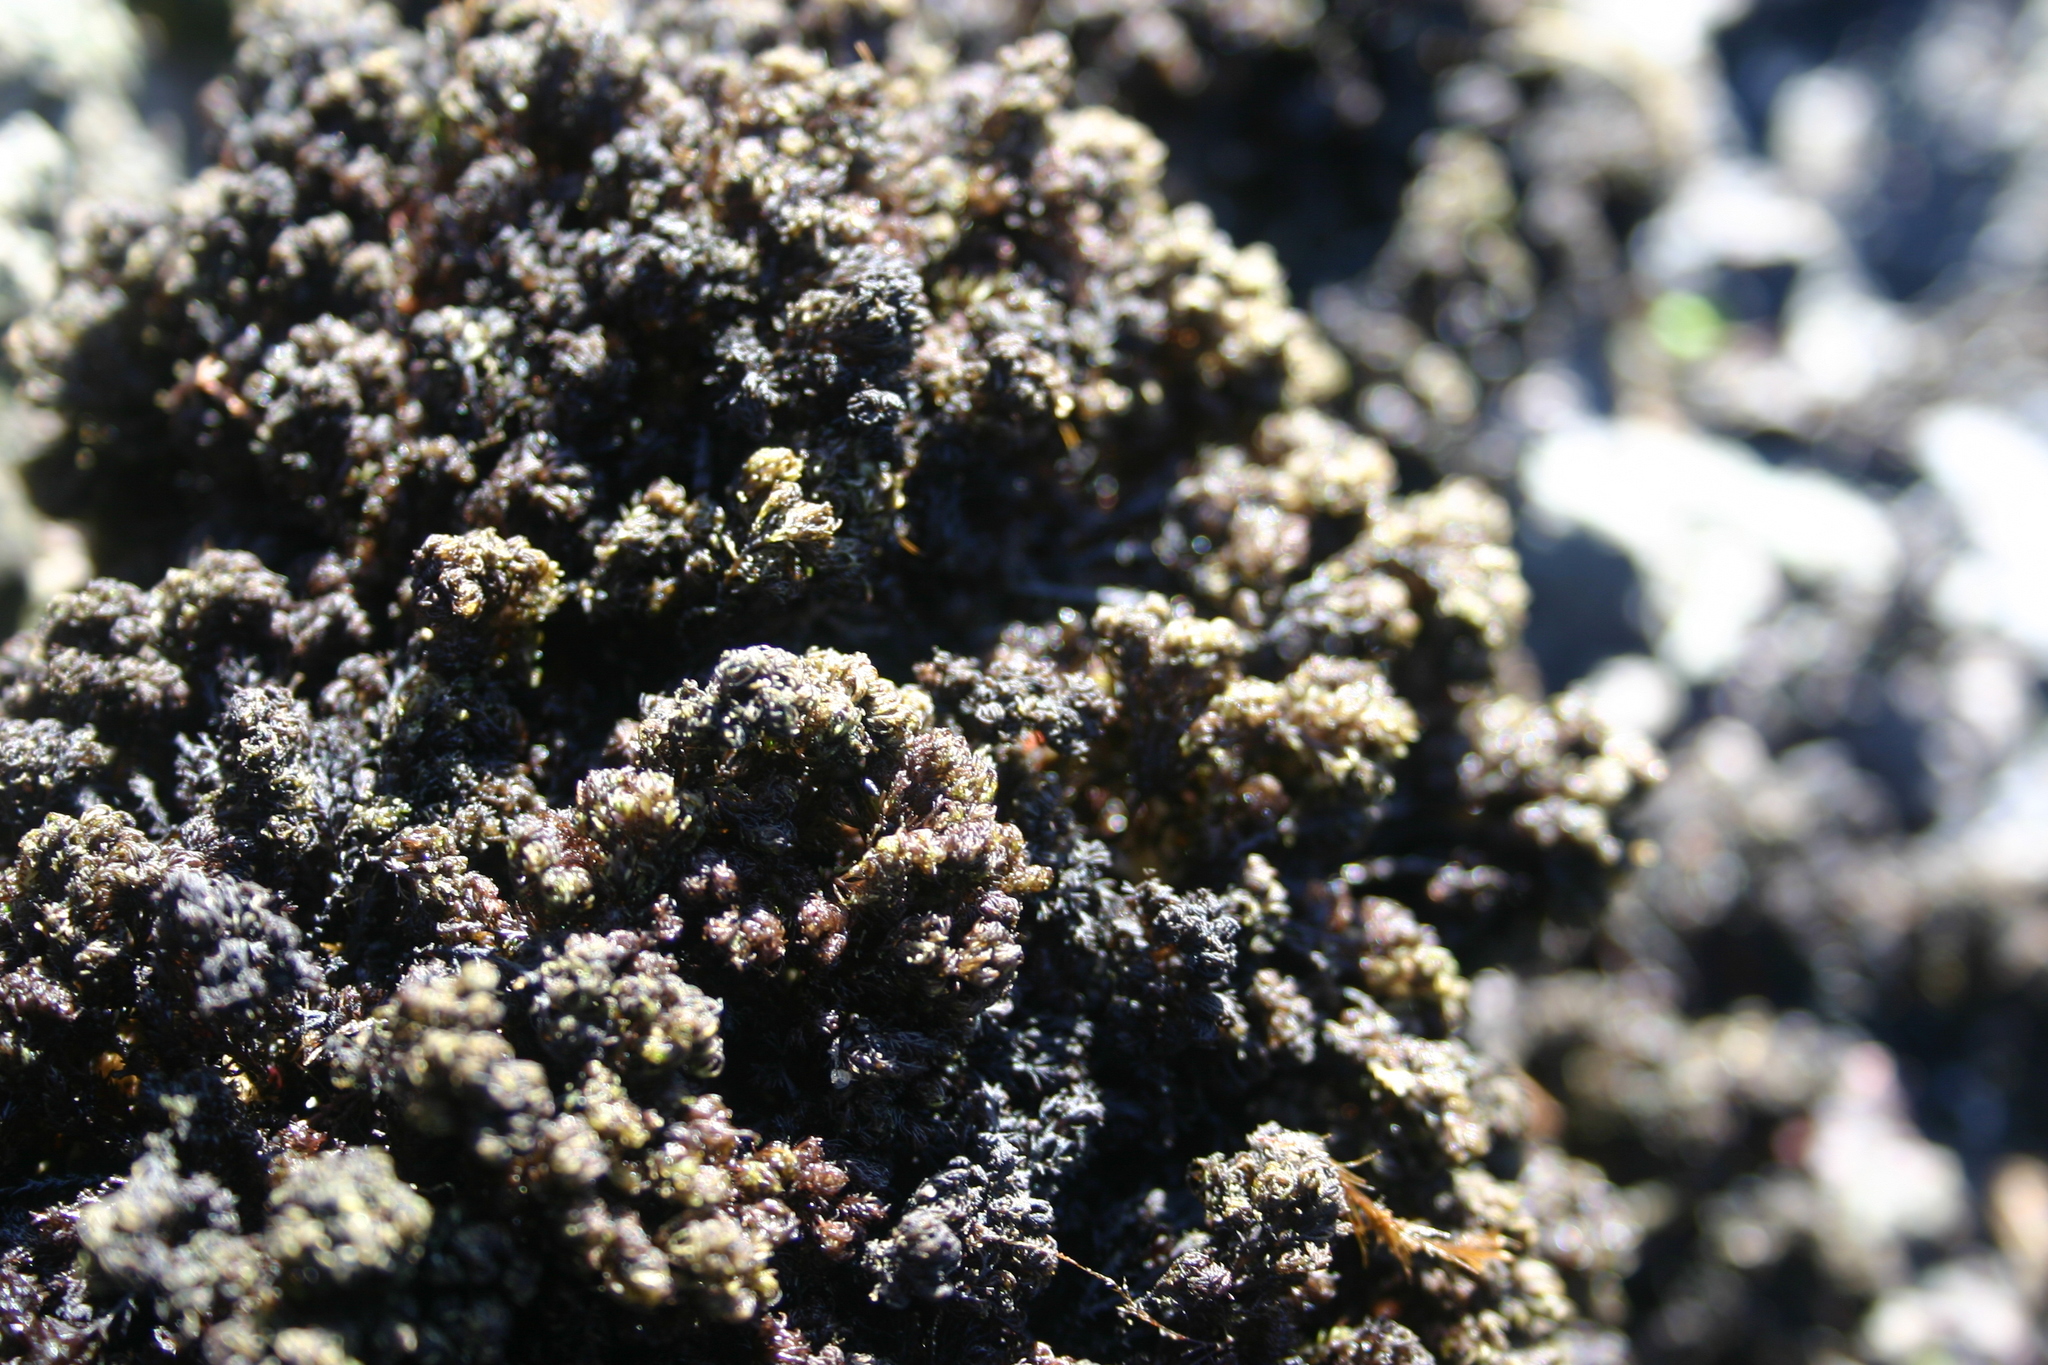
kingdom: Plantae
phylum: Rhodophyta
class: Florideophyceae
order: Ceramiales
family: Rhodomelaceae
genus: Bostrychia
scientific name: Bostrychia arbuscula
